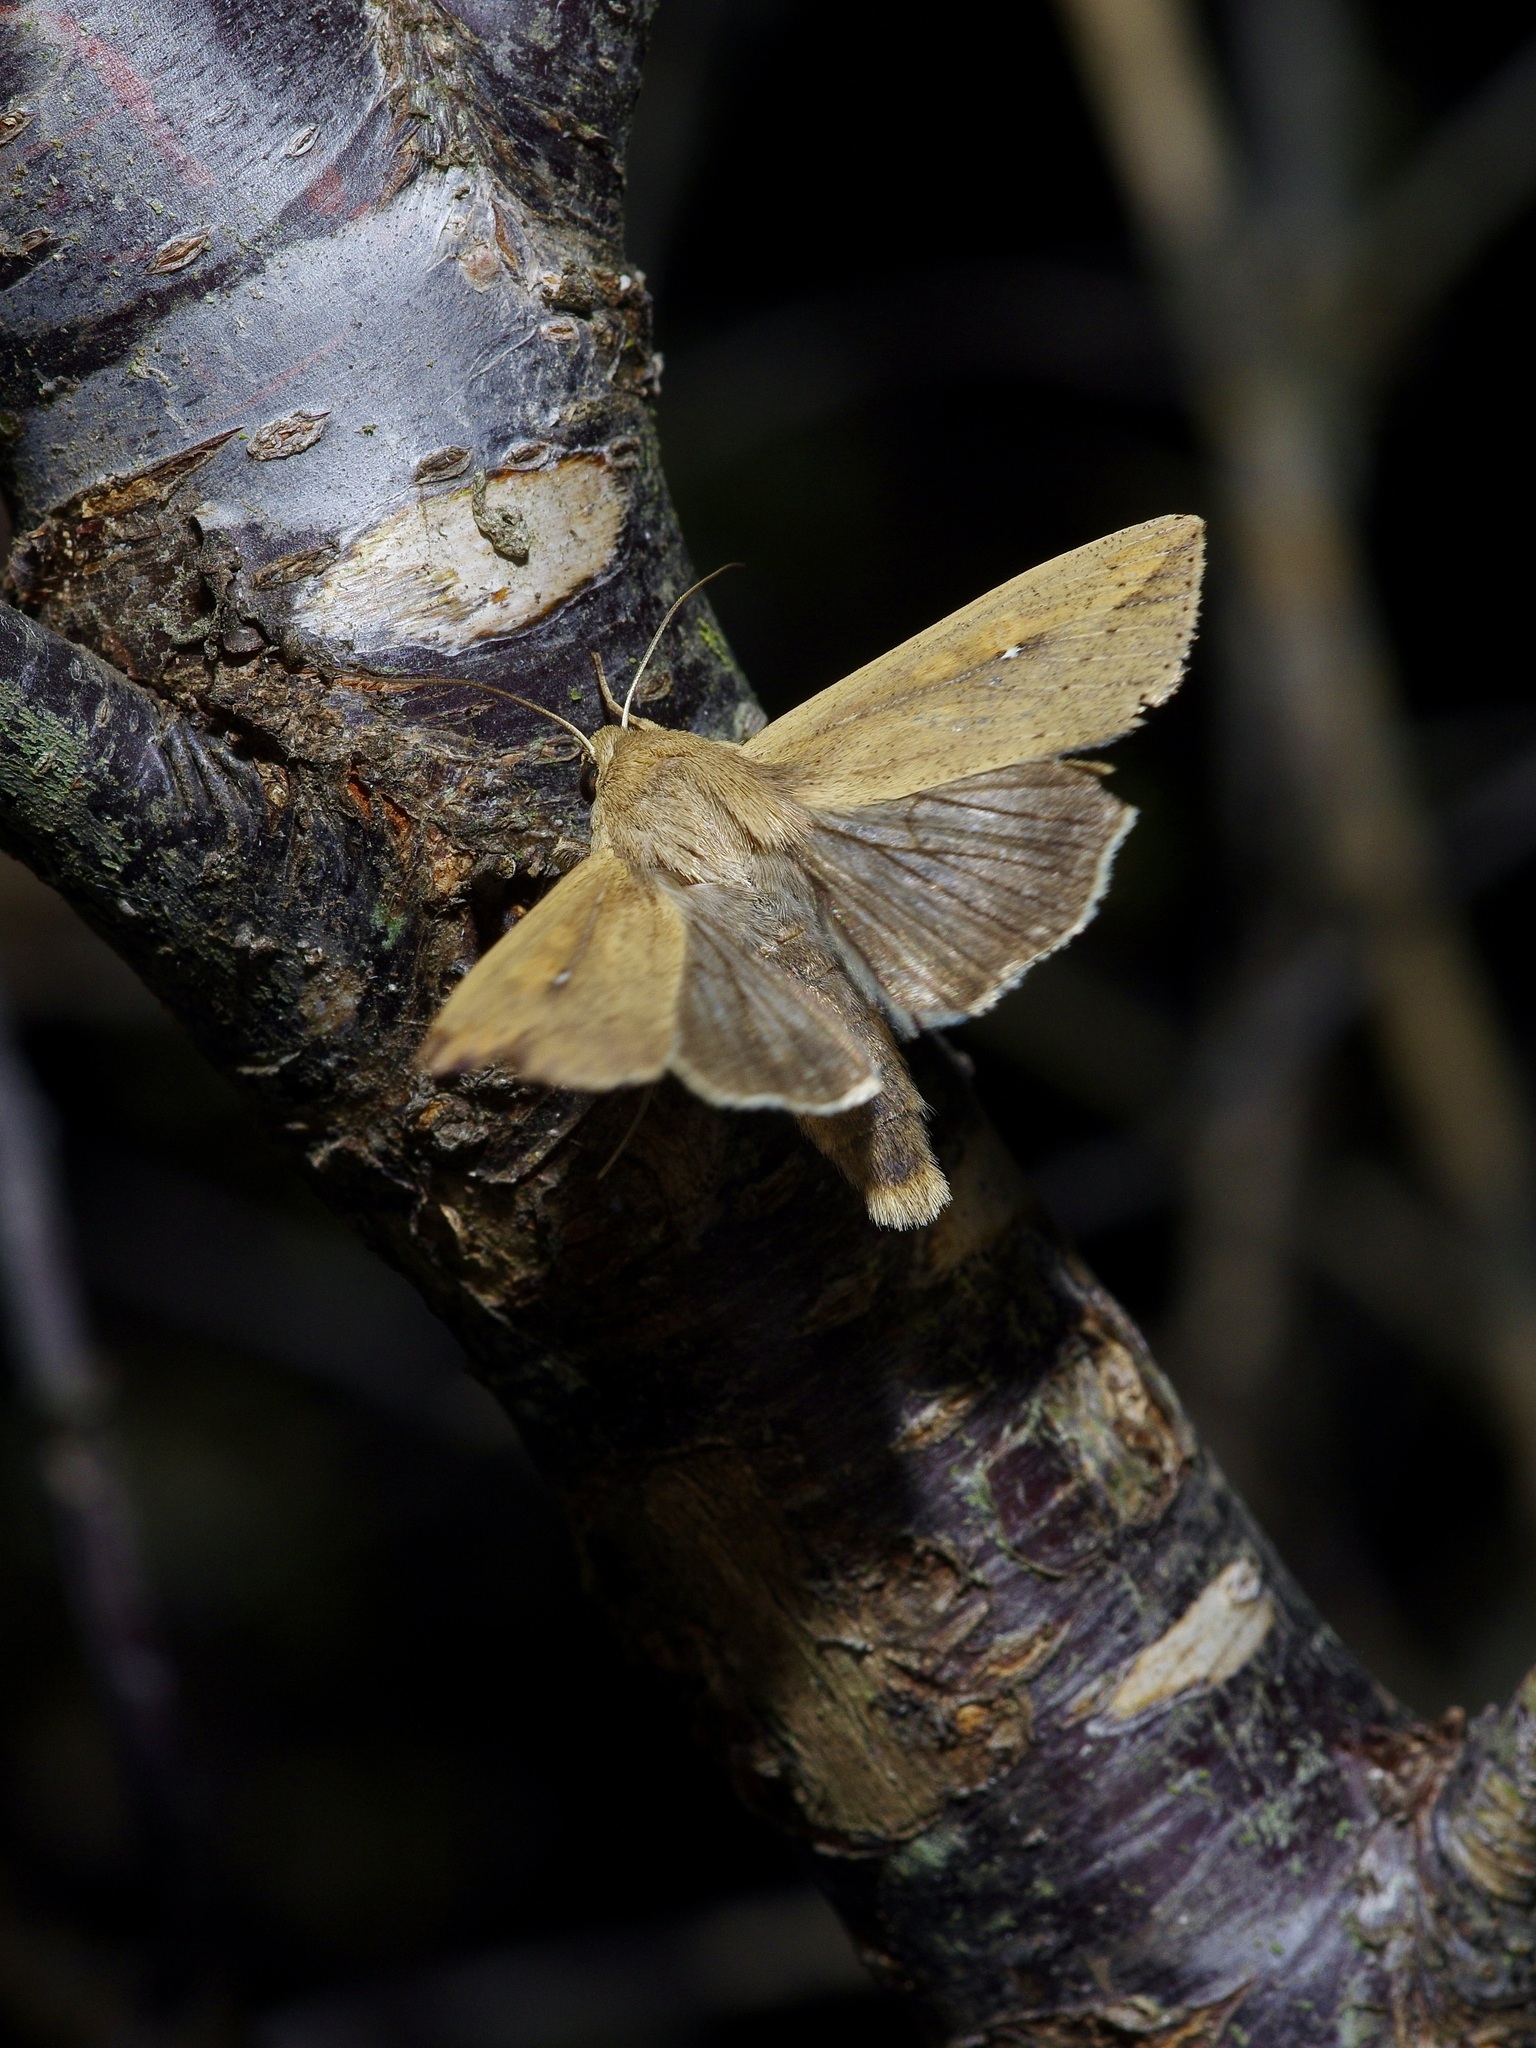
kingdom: Animalia
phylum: Arthropoda
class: Insecta
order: Lepidoptera
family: Noctuidae
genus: Mythimna
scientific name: Mythimna unipuncta
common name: White-speck
